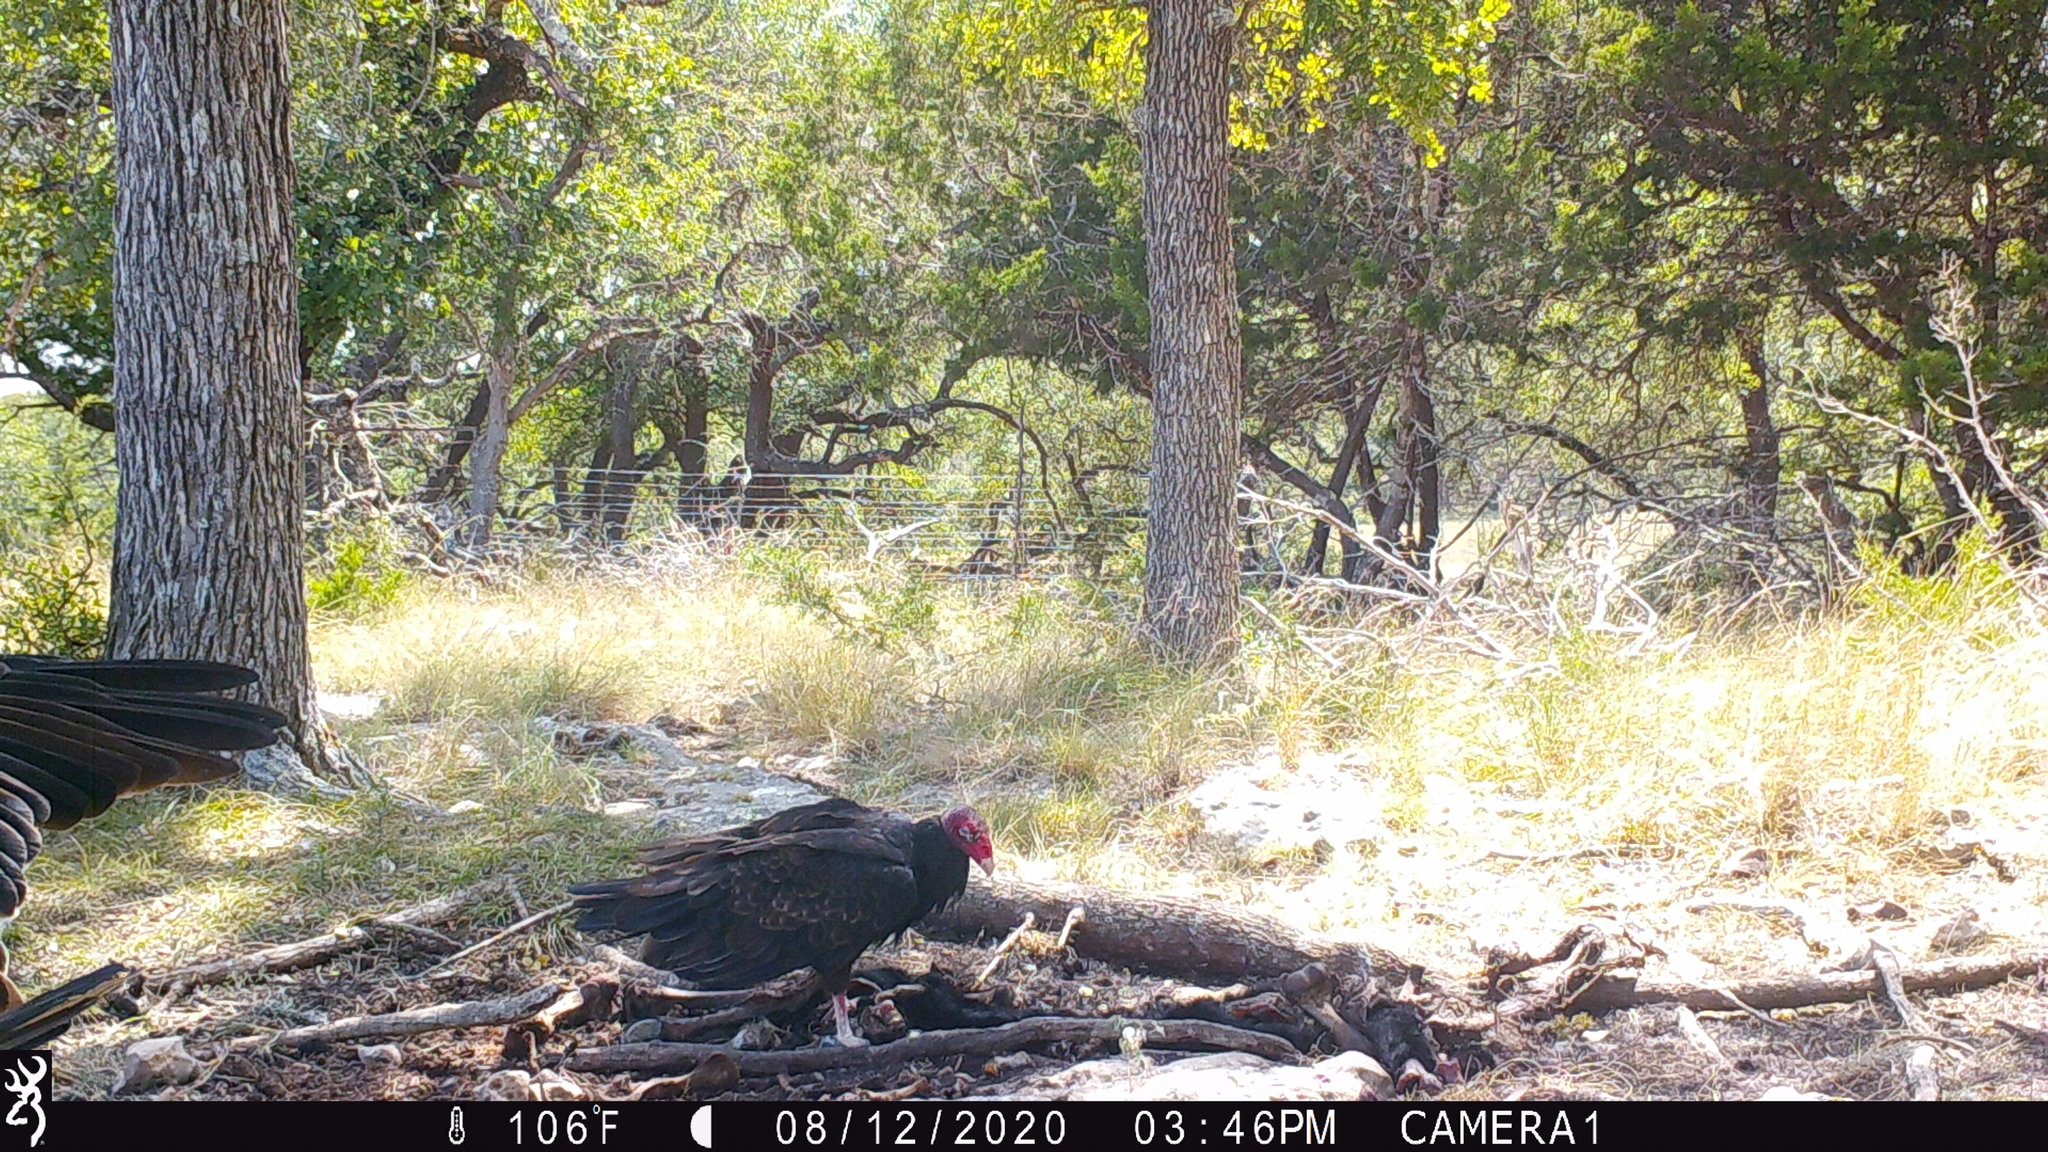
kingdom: Animalia
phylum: Chordata
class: Aves
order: Accipitriformes
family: Cathartidae
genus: Cathartes
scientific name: Cathartes aura
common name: Turkey vulture
